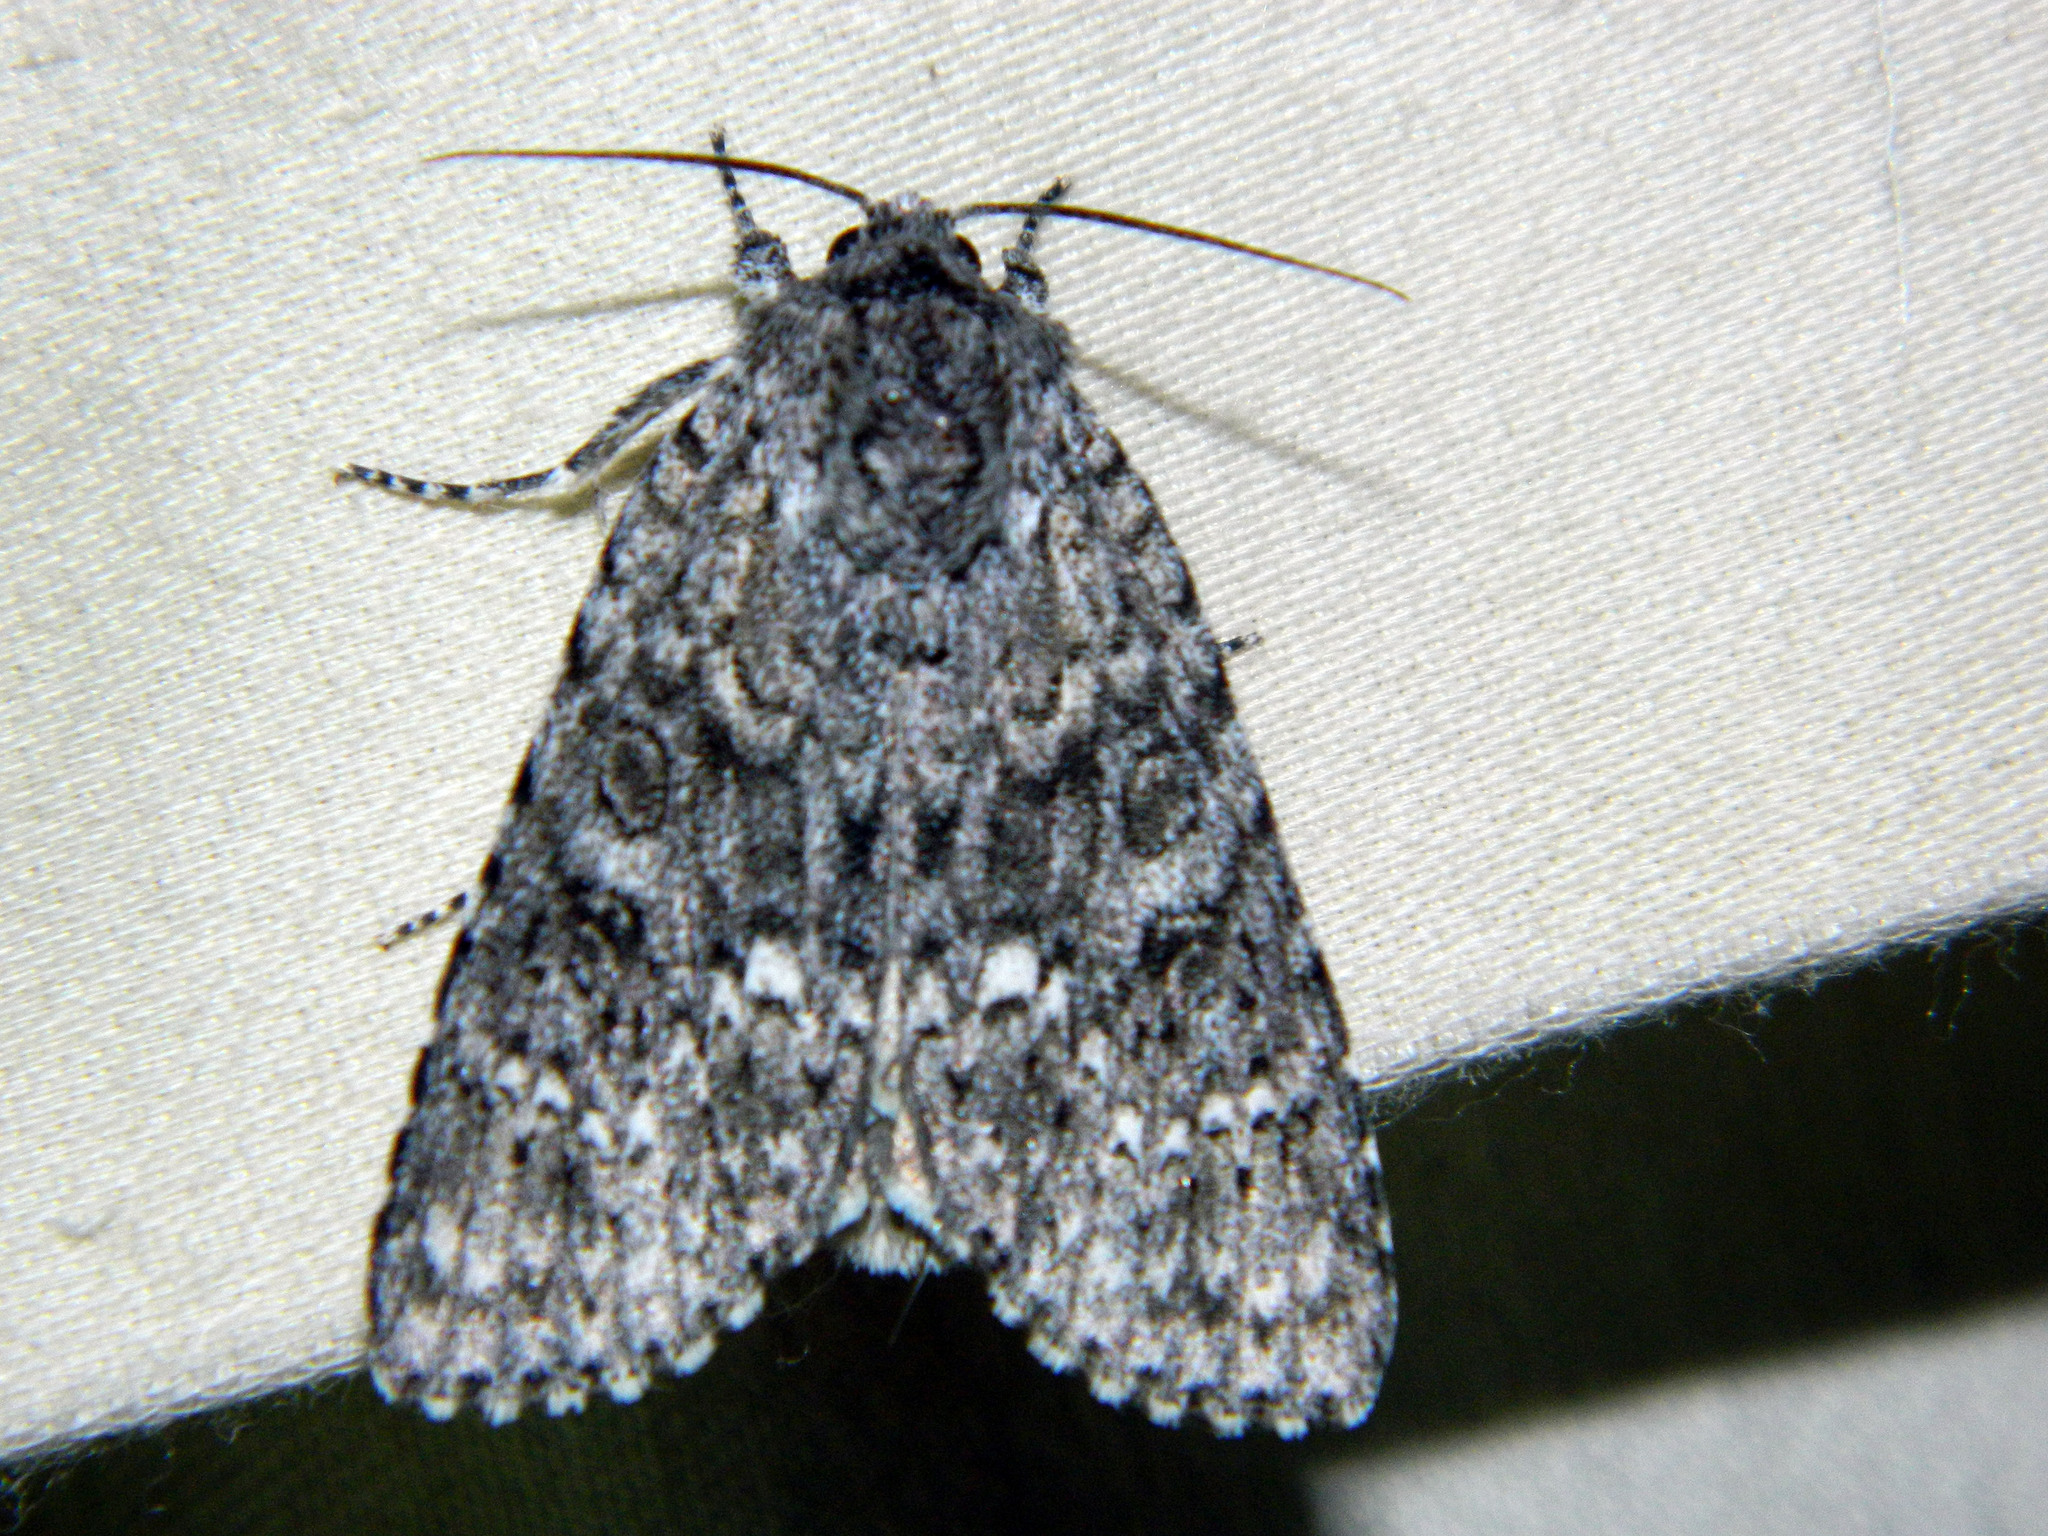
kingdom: Animalia
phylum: Arthropoda
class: Insecta
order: Lepidoptera
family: Noctuidae
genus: Acronicta
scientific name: Acronicta impleta
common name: Powdered dagger
